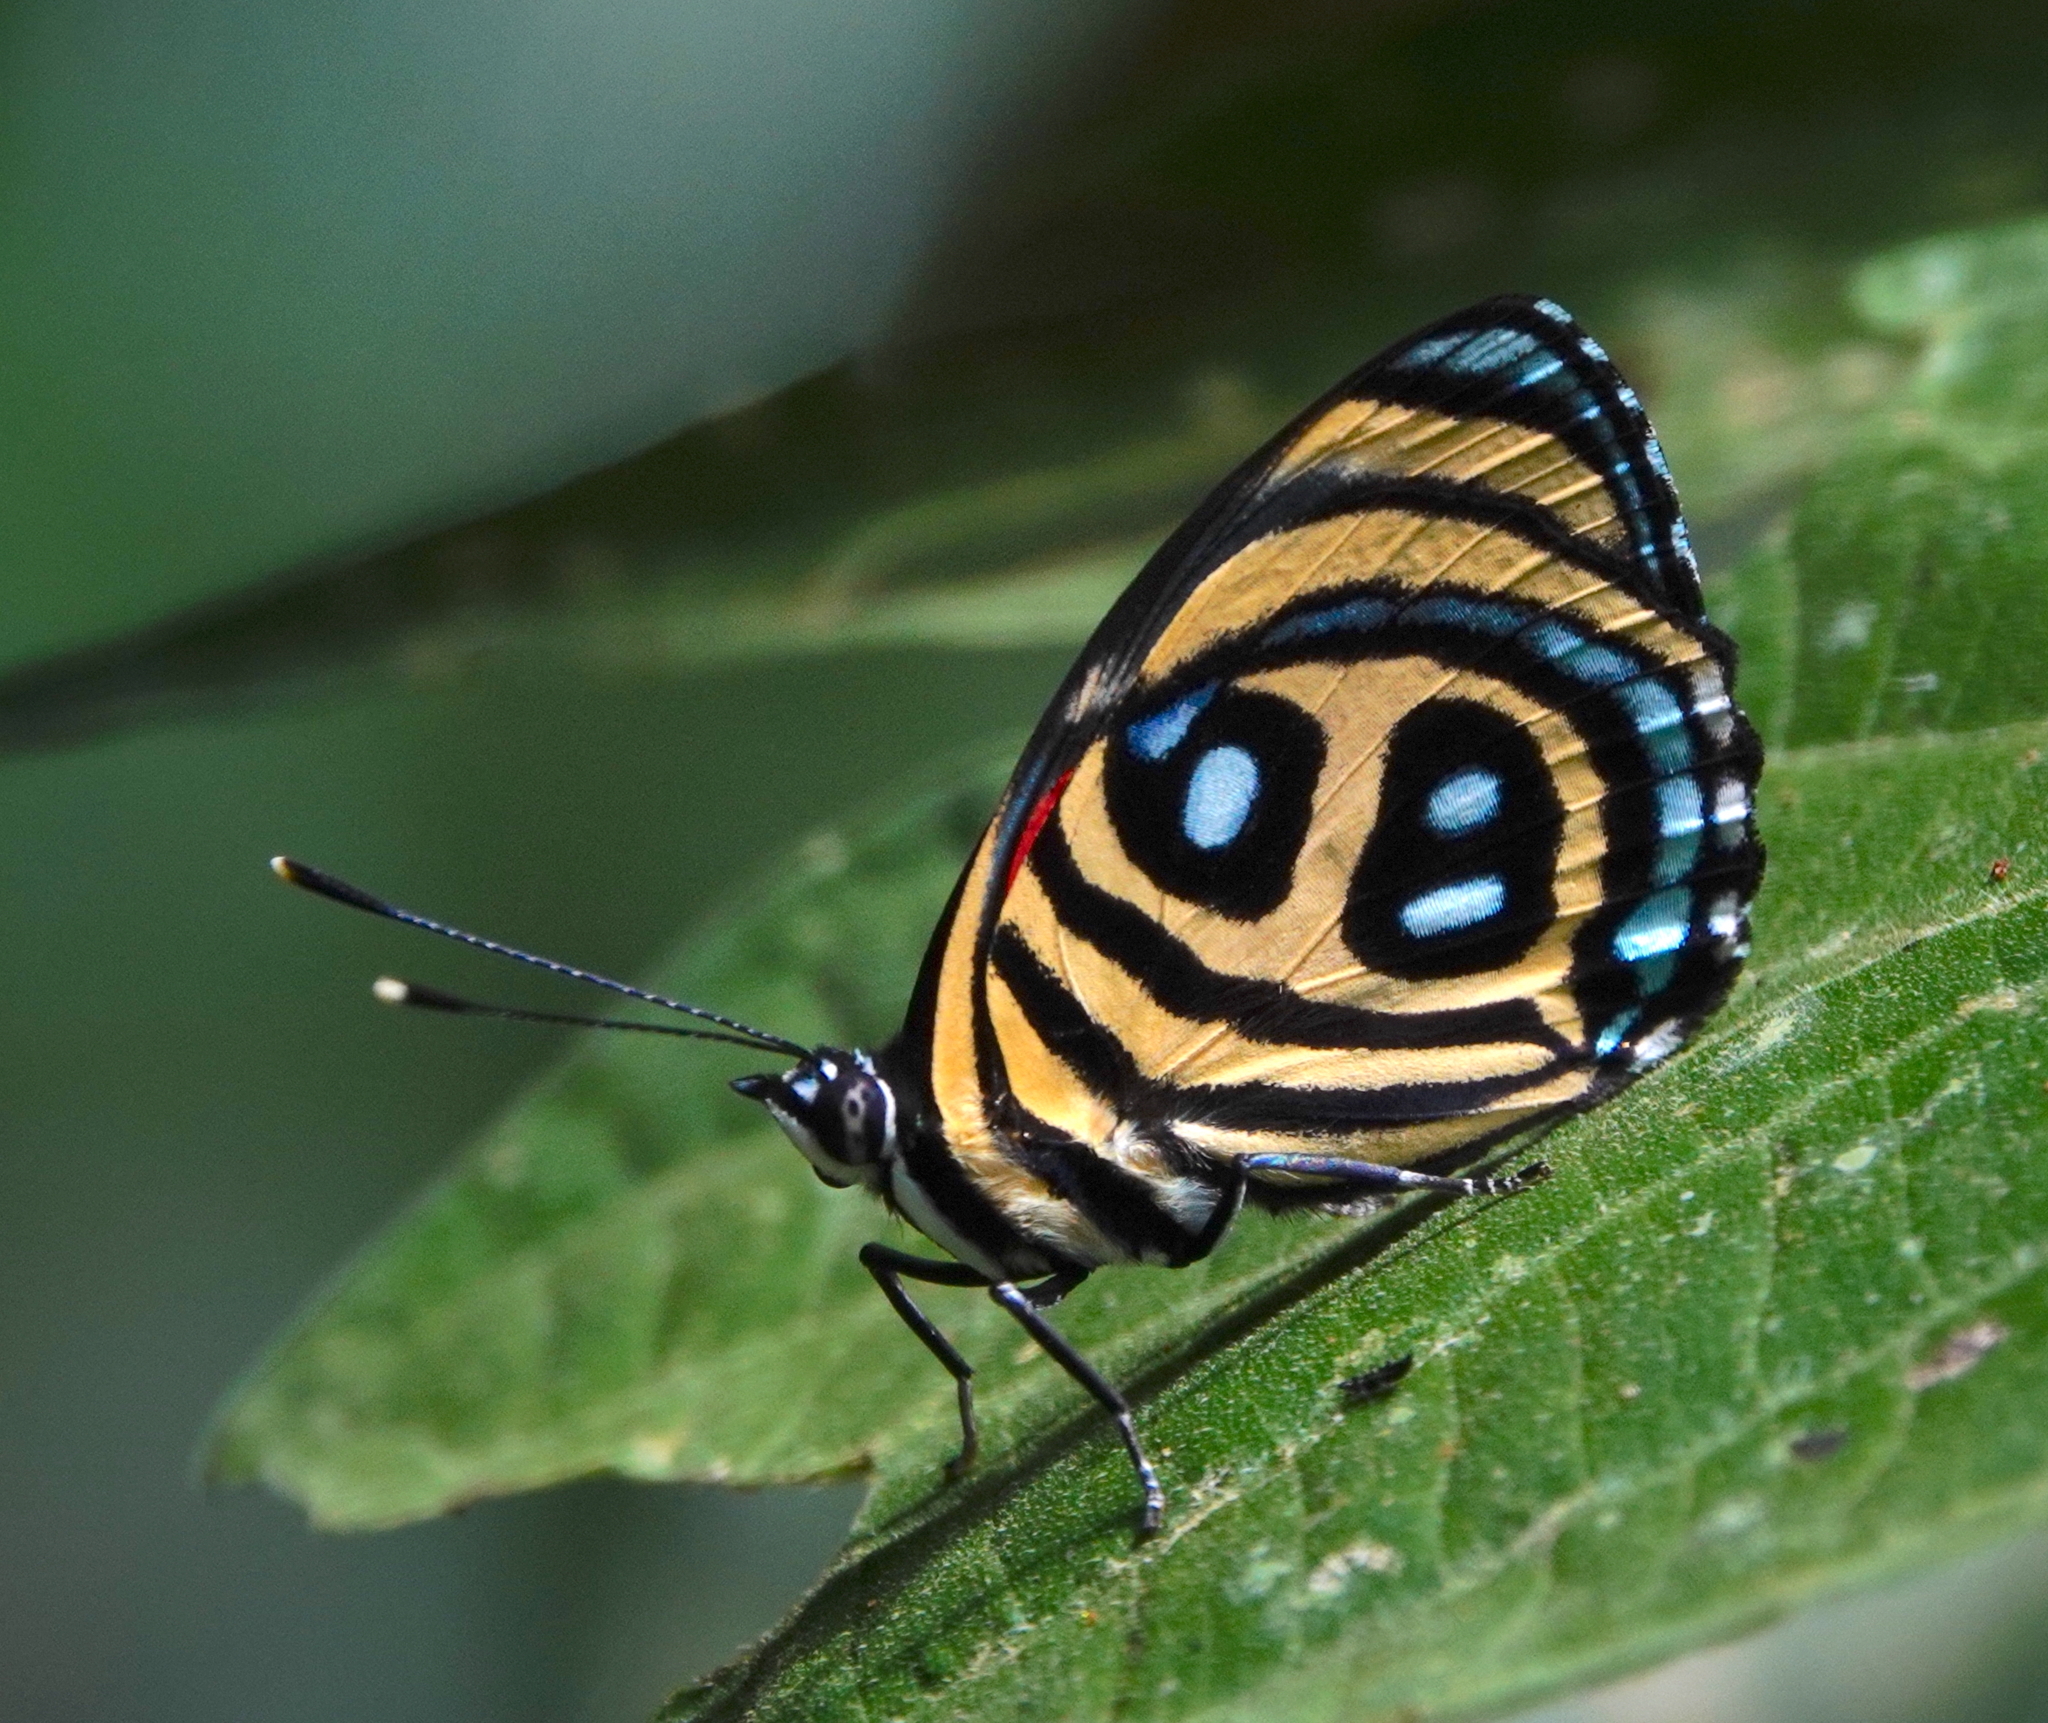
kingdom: Animalia
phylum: Arthropoda
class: Insecta
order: Lepidoptera
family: Nymphalidae
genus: Catagramma
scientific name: Catagramma pyracmon
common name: Google-eyed eighty-eight
